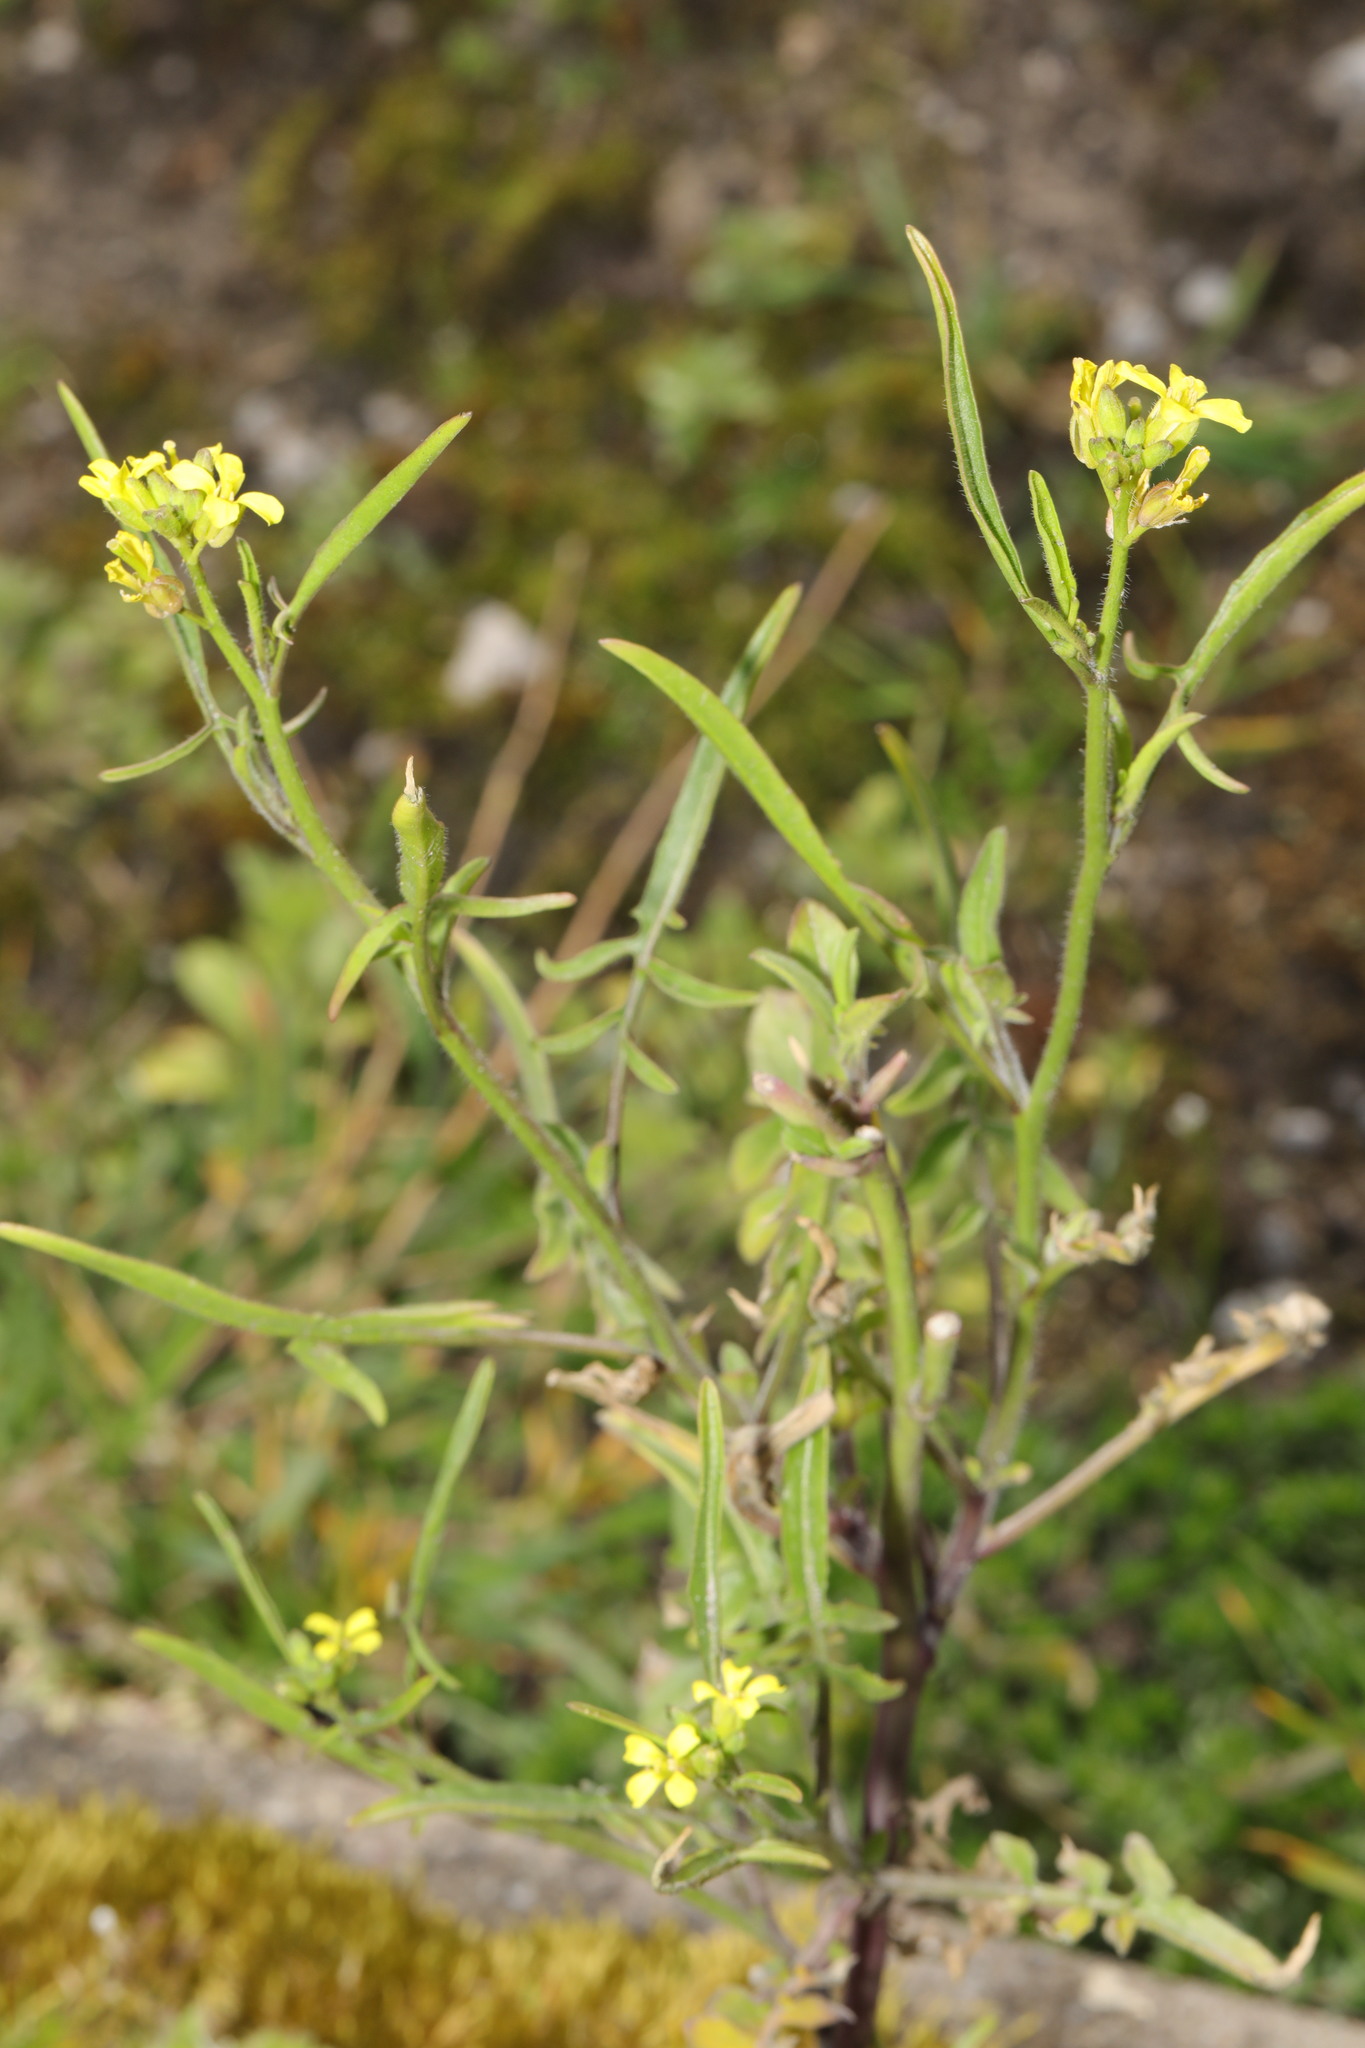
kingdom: Plantae
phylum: Tracheophyta
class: Magnoliopsida
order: Brassicales
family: Brassicaceae
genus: Sisymbrium
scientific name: Sisymbrium officinale
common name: Hedge mustard
